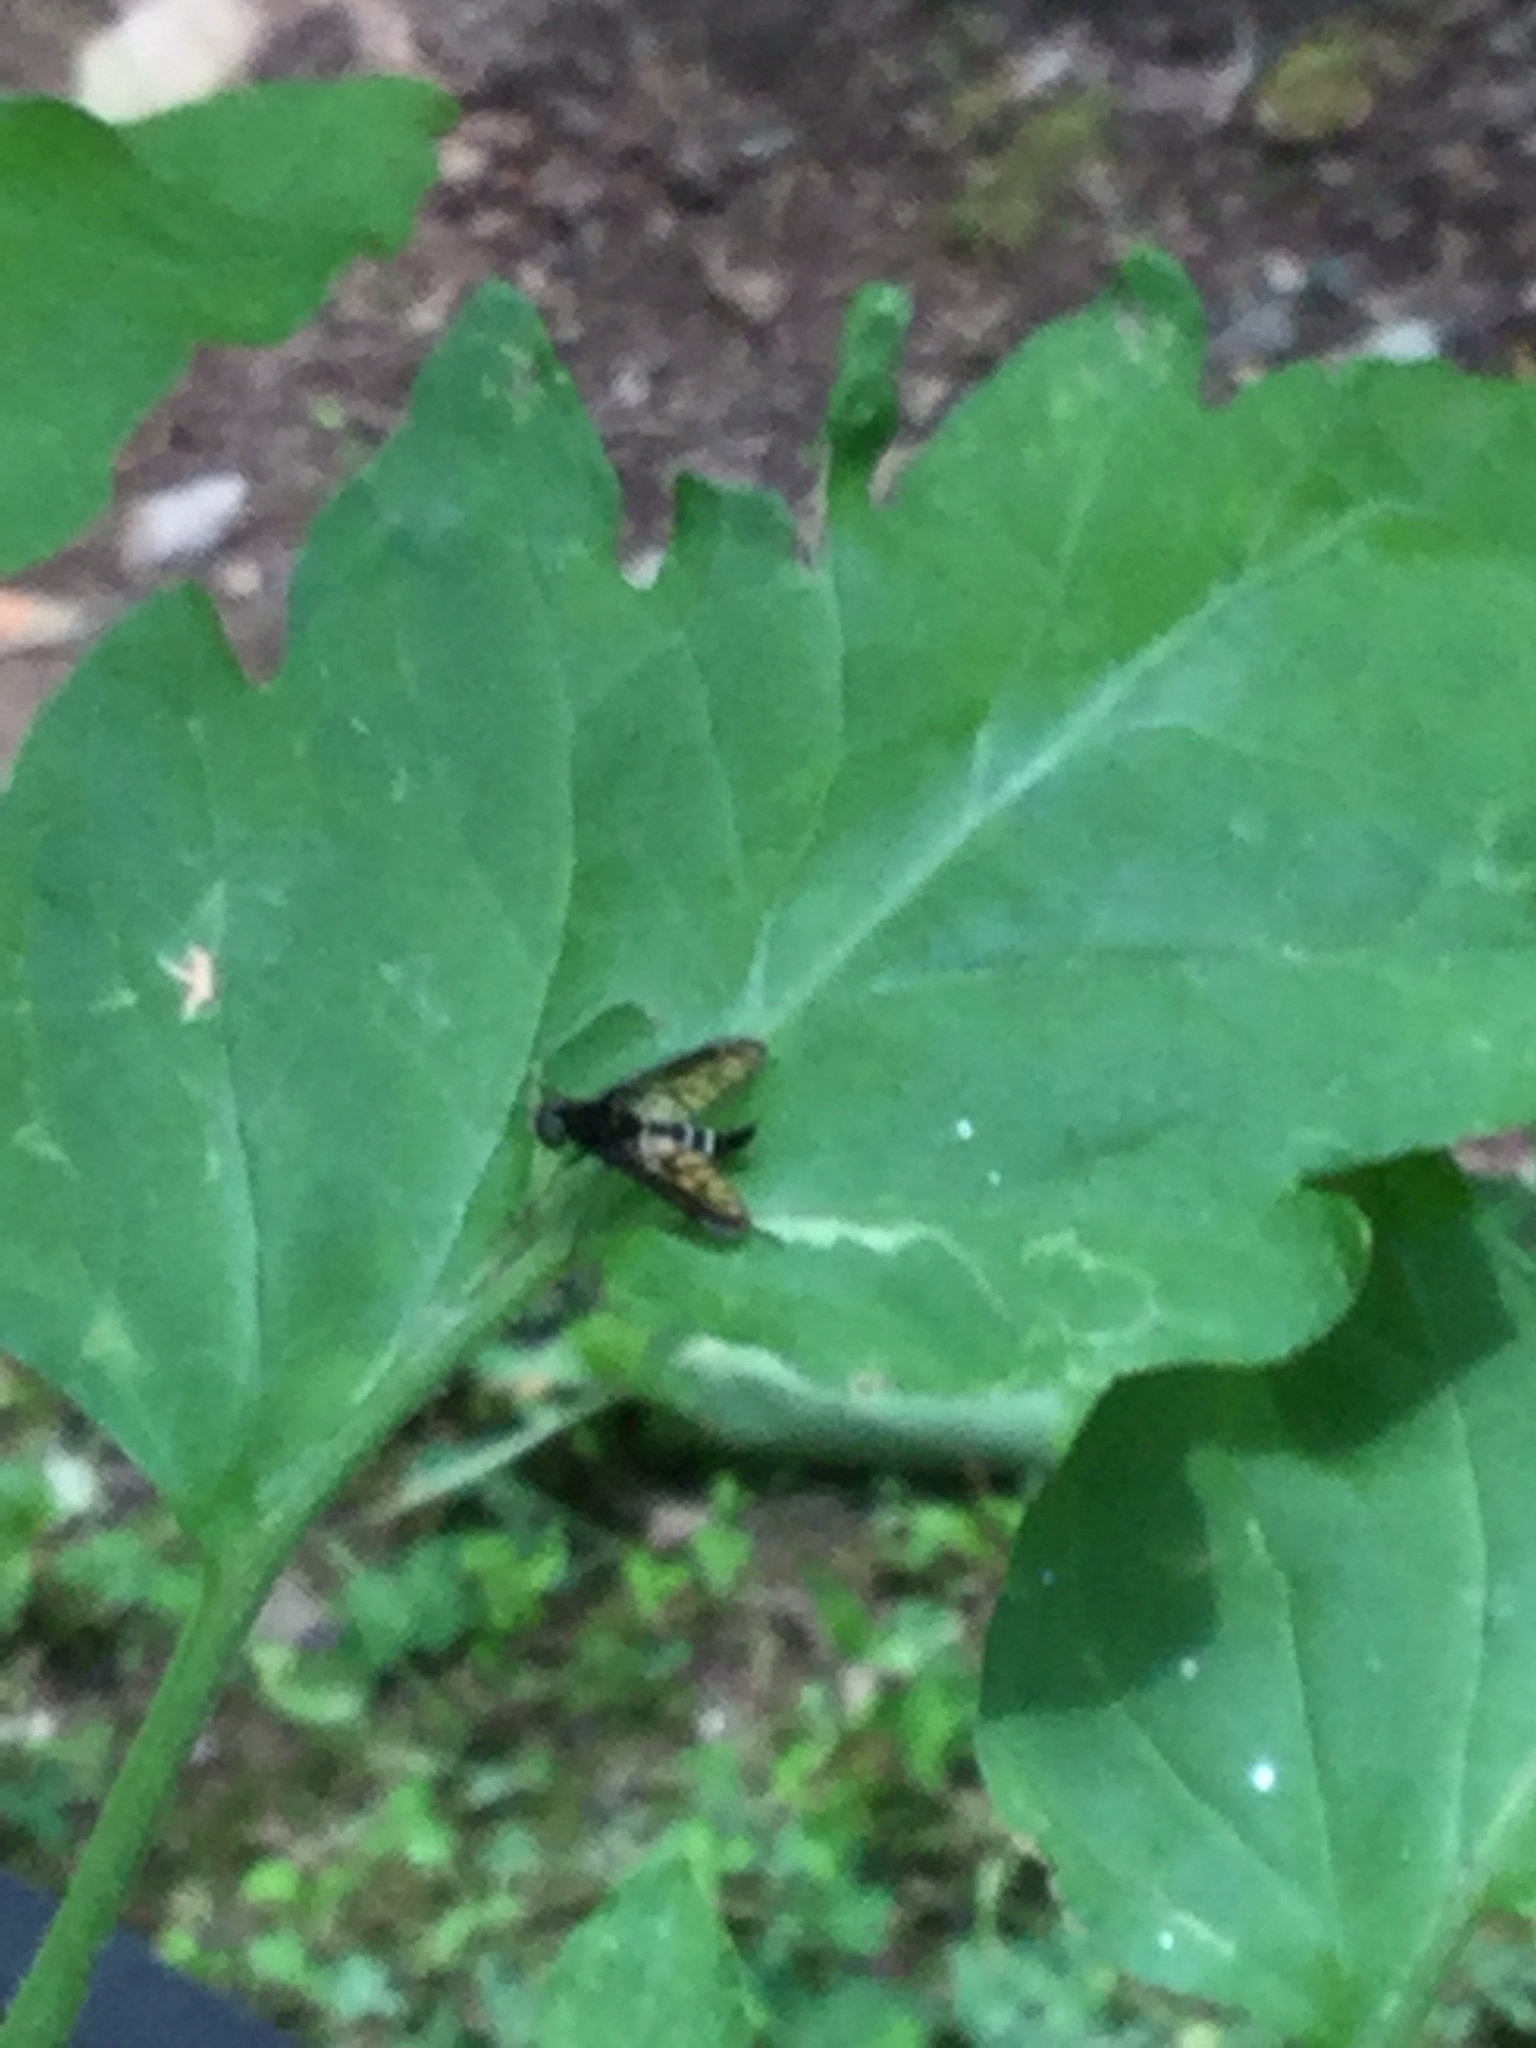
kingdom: Animalia
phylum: Arthropoda
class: Insecta
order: Diptera
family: Rhagionidae
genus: Chrysopilus
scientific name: Chrysopilus connexus
